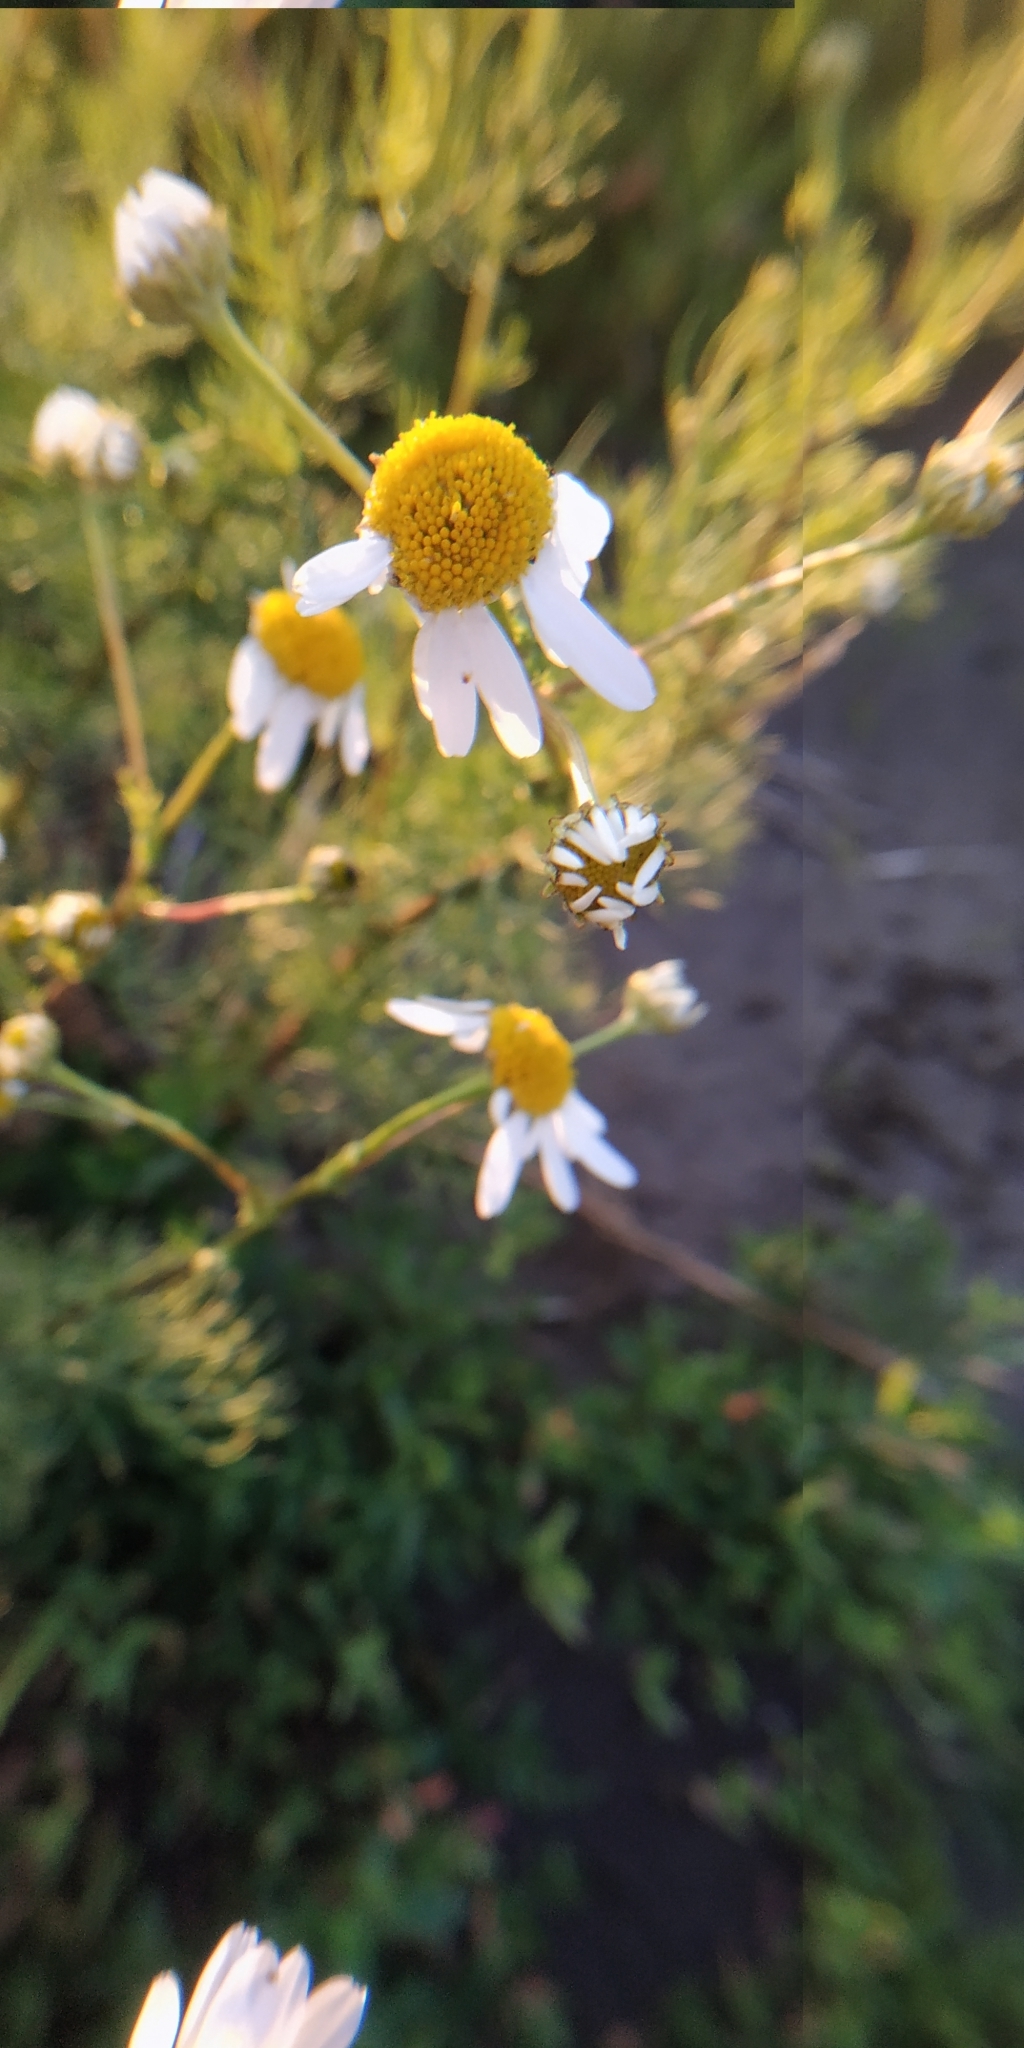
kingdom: Plantae
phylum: Tracheophyta
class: Magnoliopsida
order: Asterales
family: Asteraceae
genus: Tripleurospermum
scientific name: Tripleurospermum inodorum
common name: Scentless mayweed
